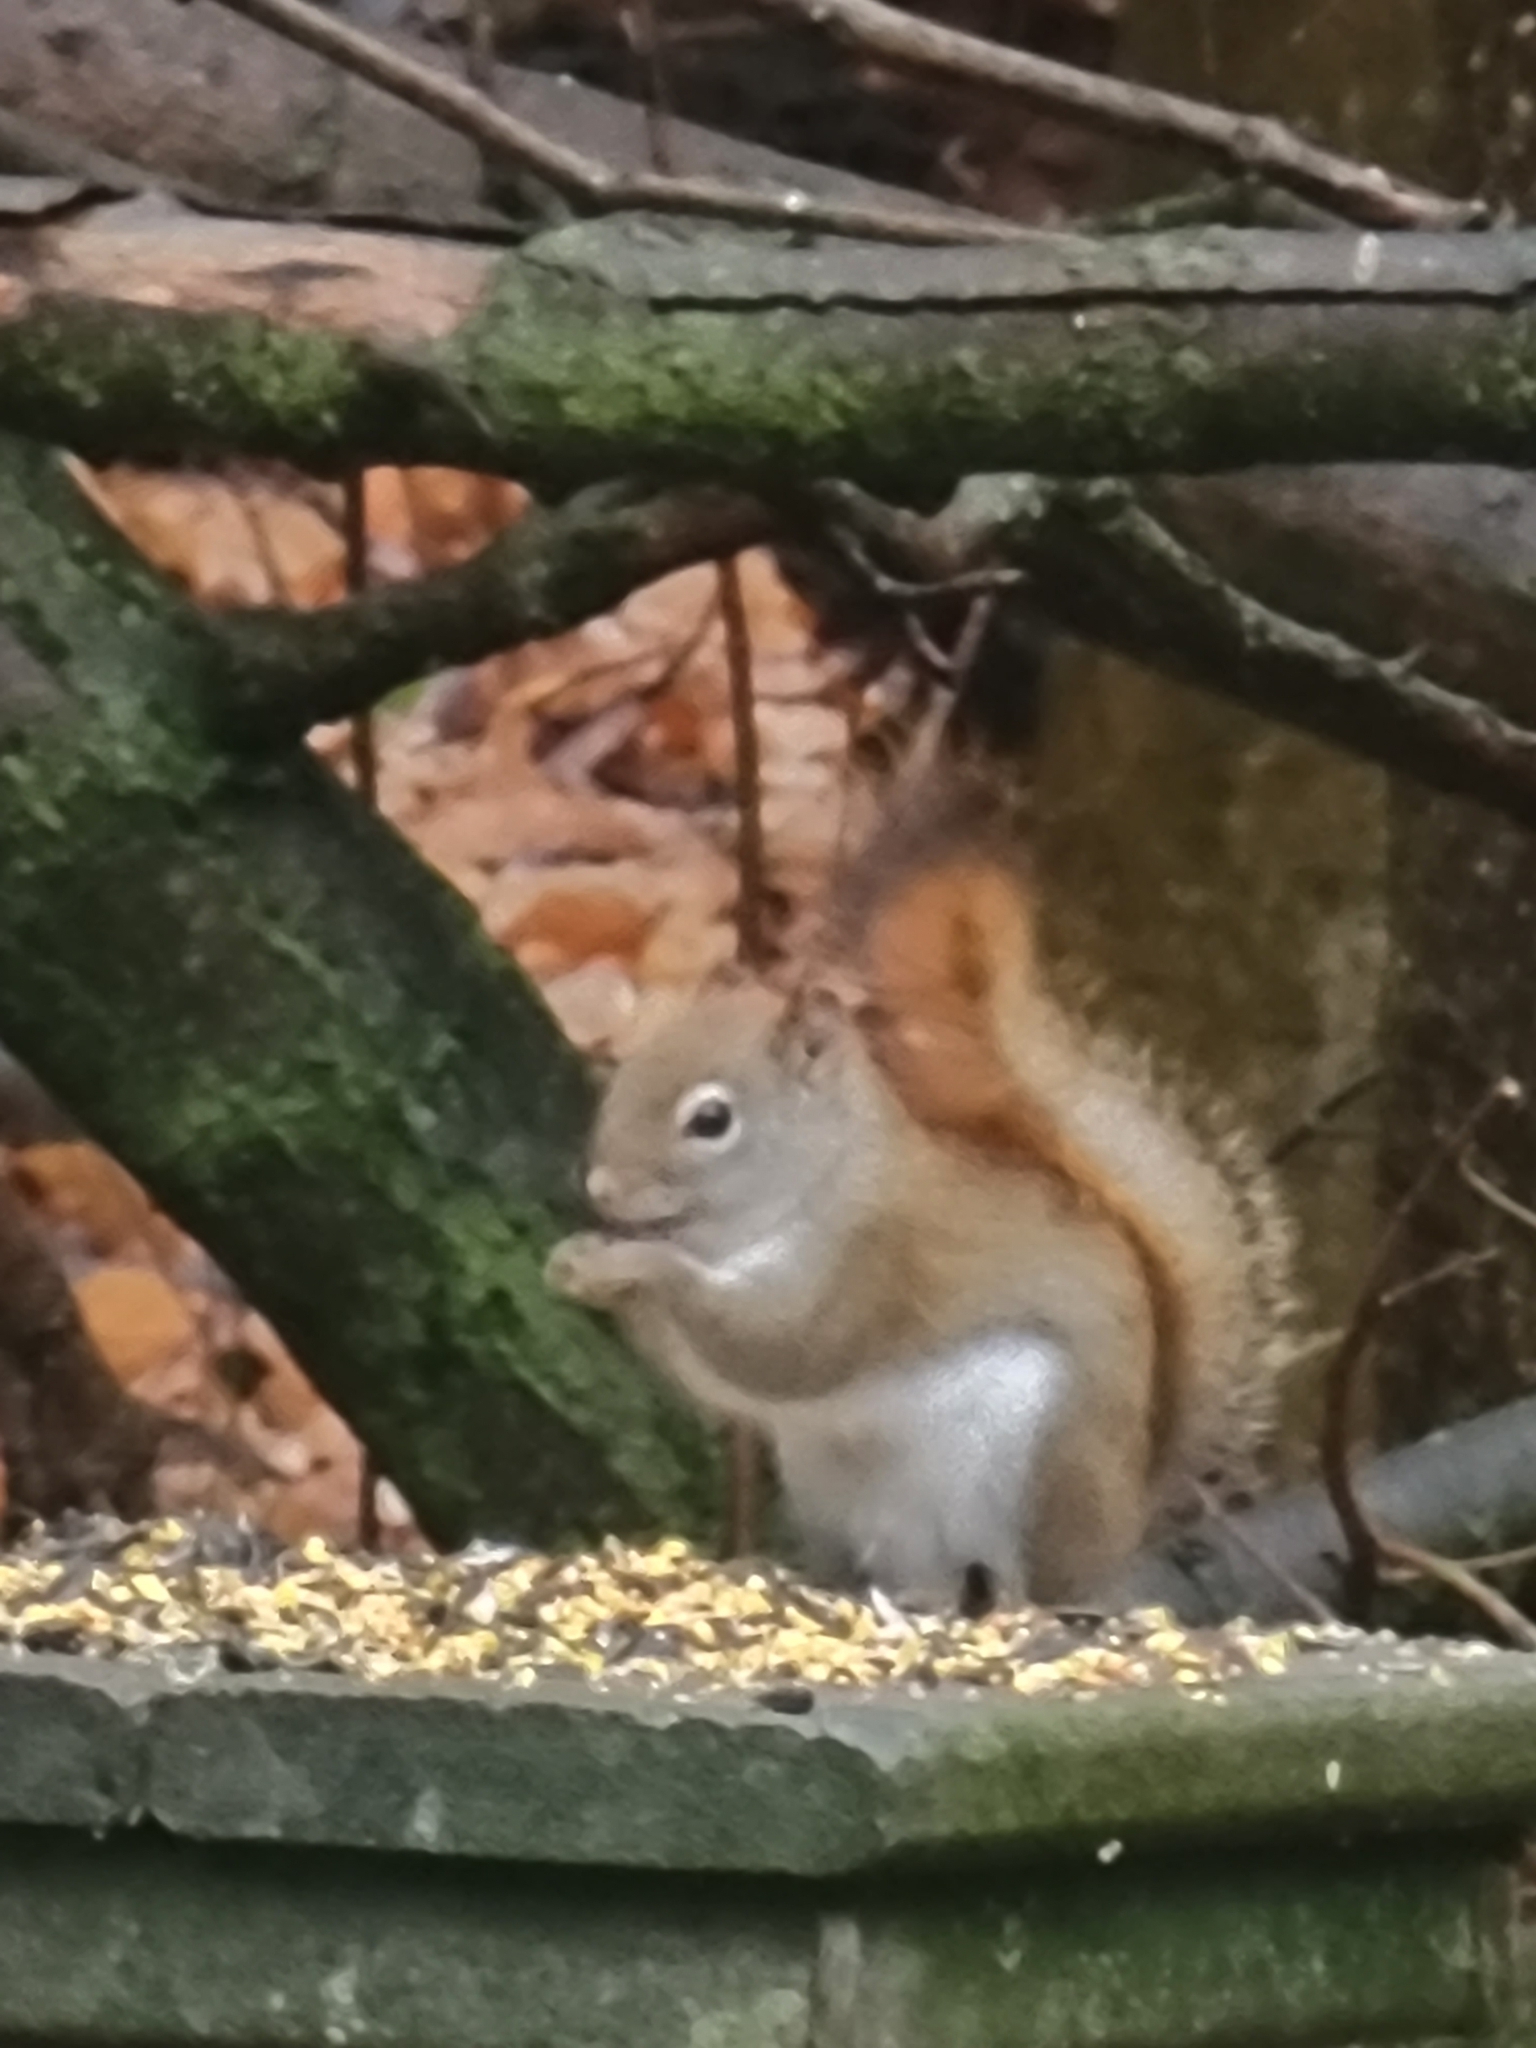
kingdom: Animalia
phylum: Chordata
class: Mammalia
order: Rodentia
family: Sciuridae
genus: Tamiasciurus
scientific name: Tamiasciurus hudsonicus
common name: Red squirrel
